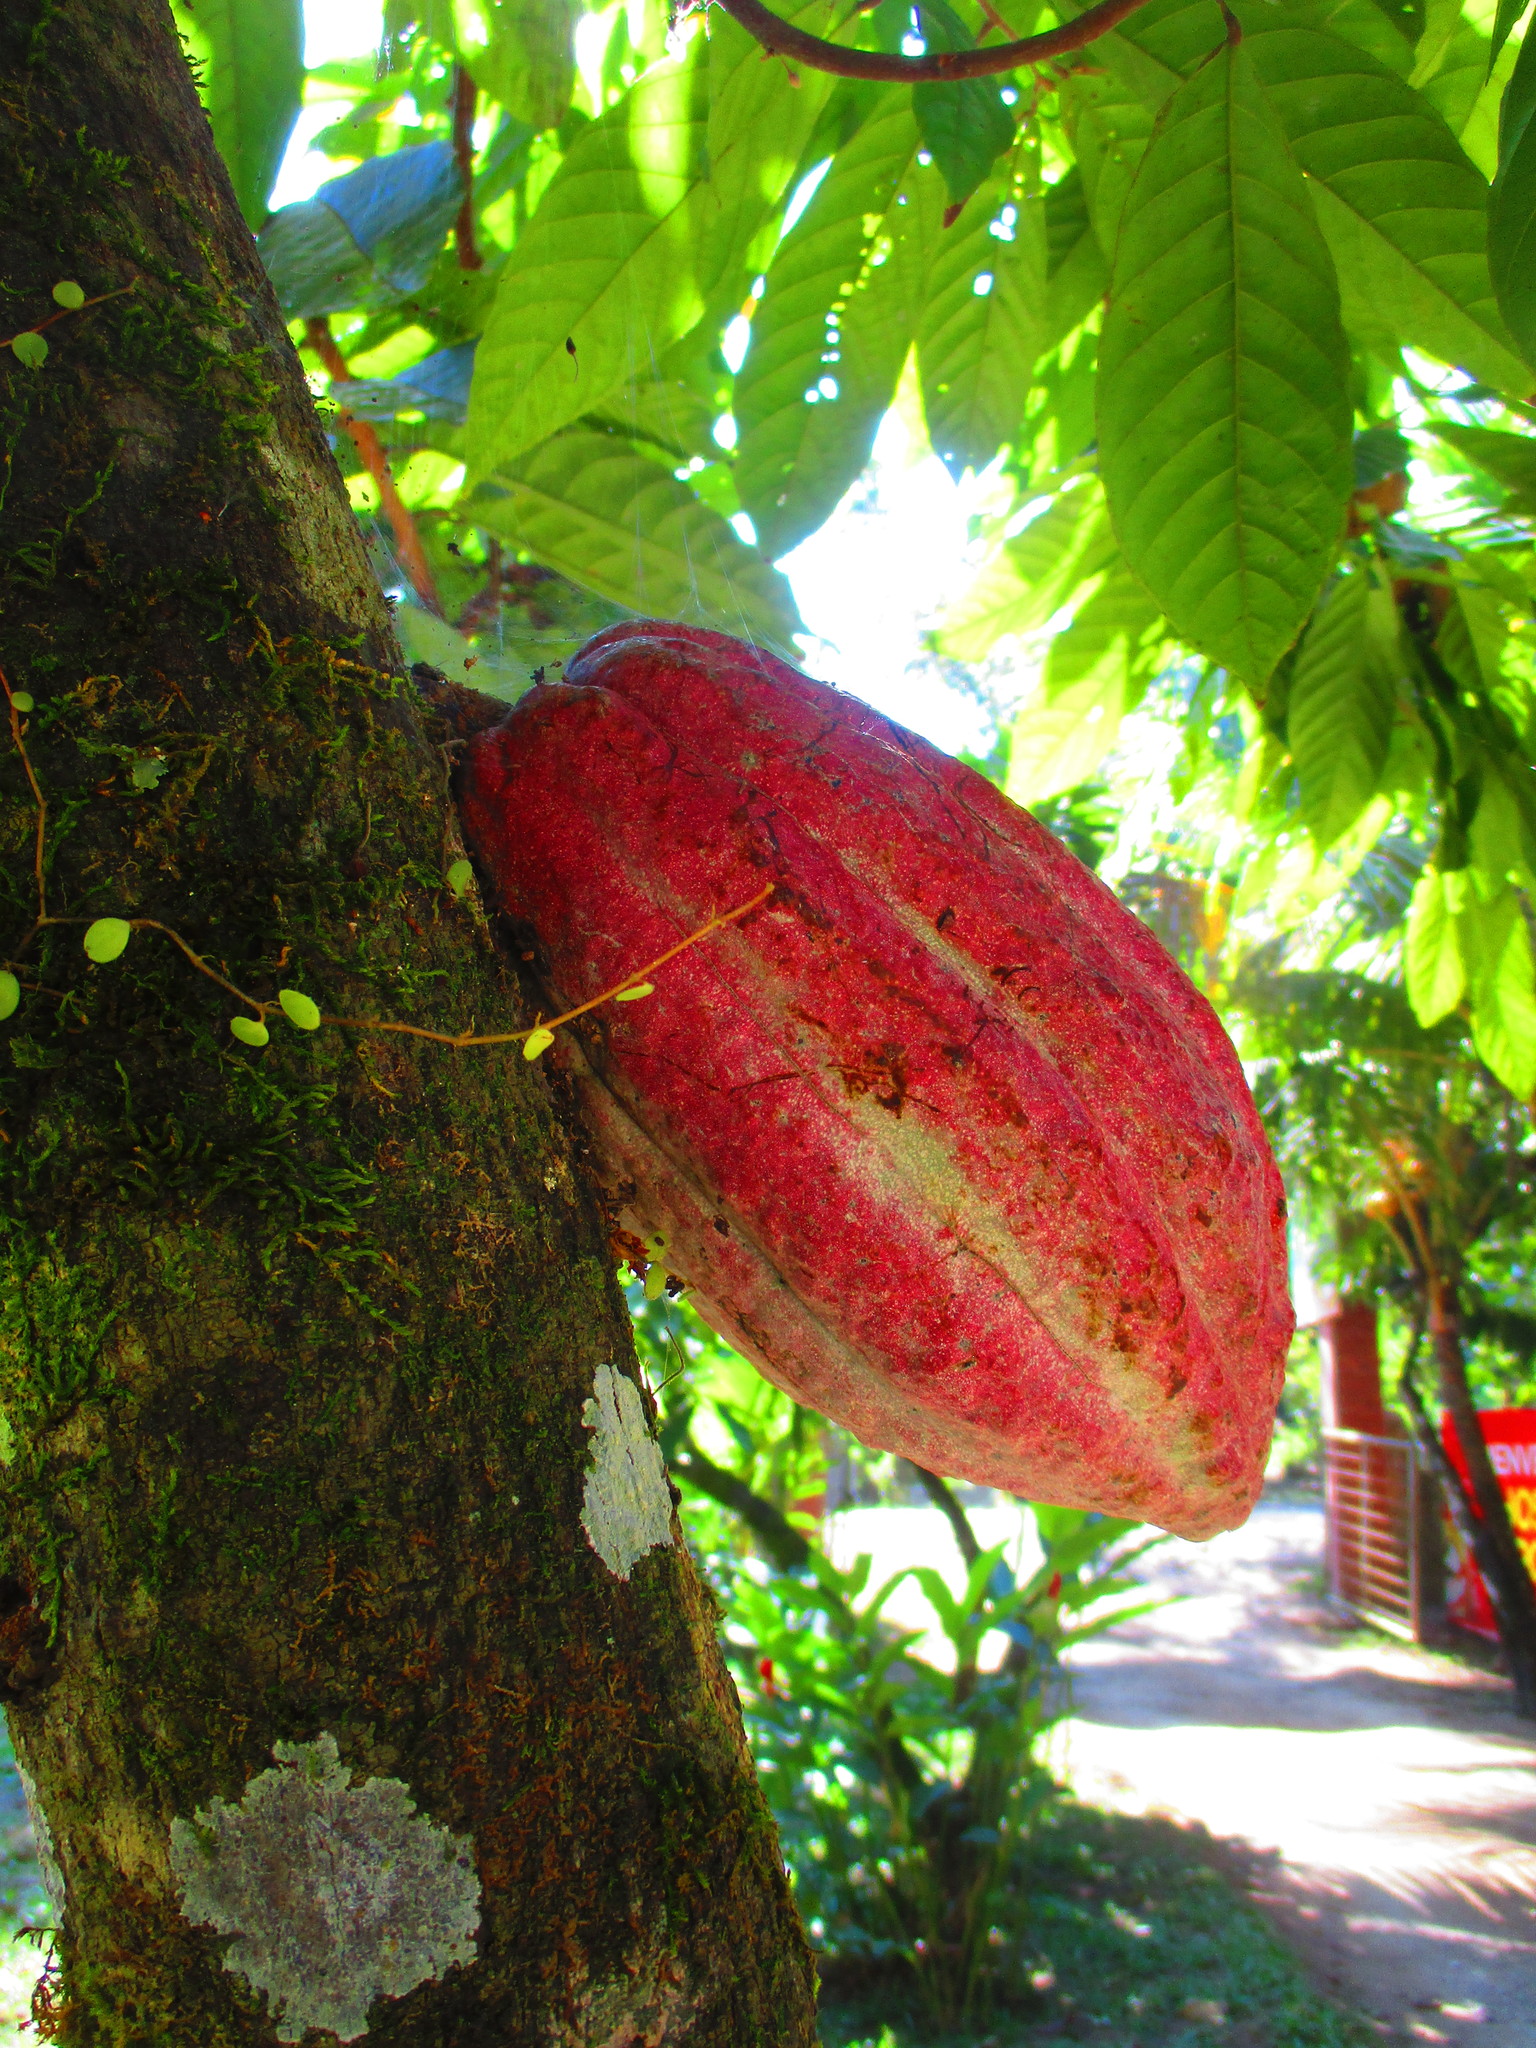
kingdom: Plantae
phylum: Tracheophyta
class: Magnoliopsida
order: Malvales
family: Malvaceae
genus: Theobroma
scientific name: Theobroma cacao
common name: Cocoa
